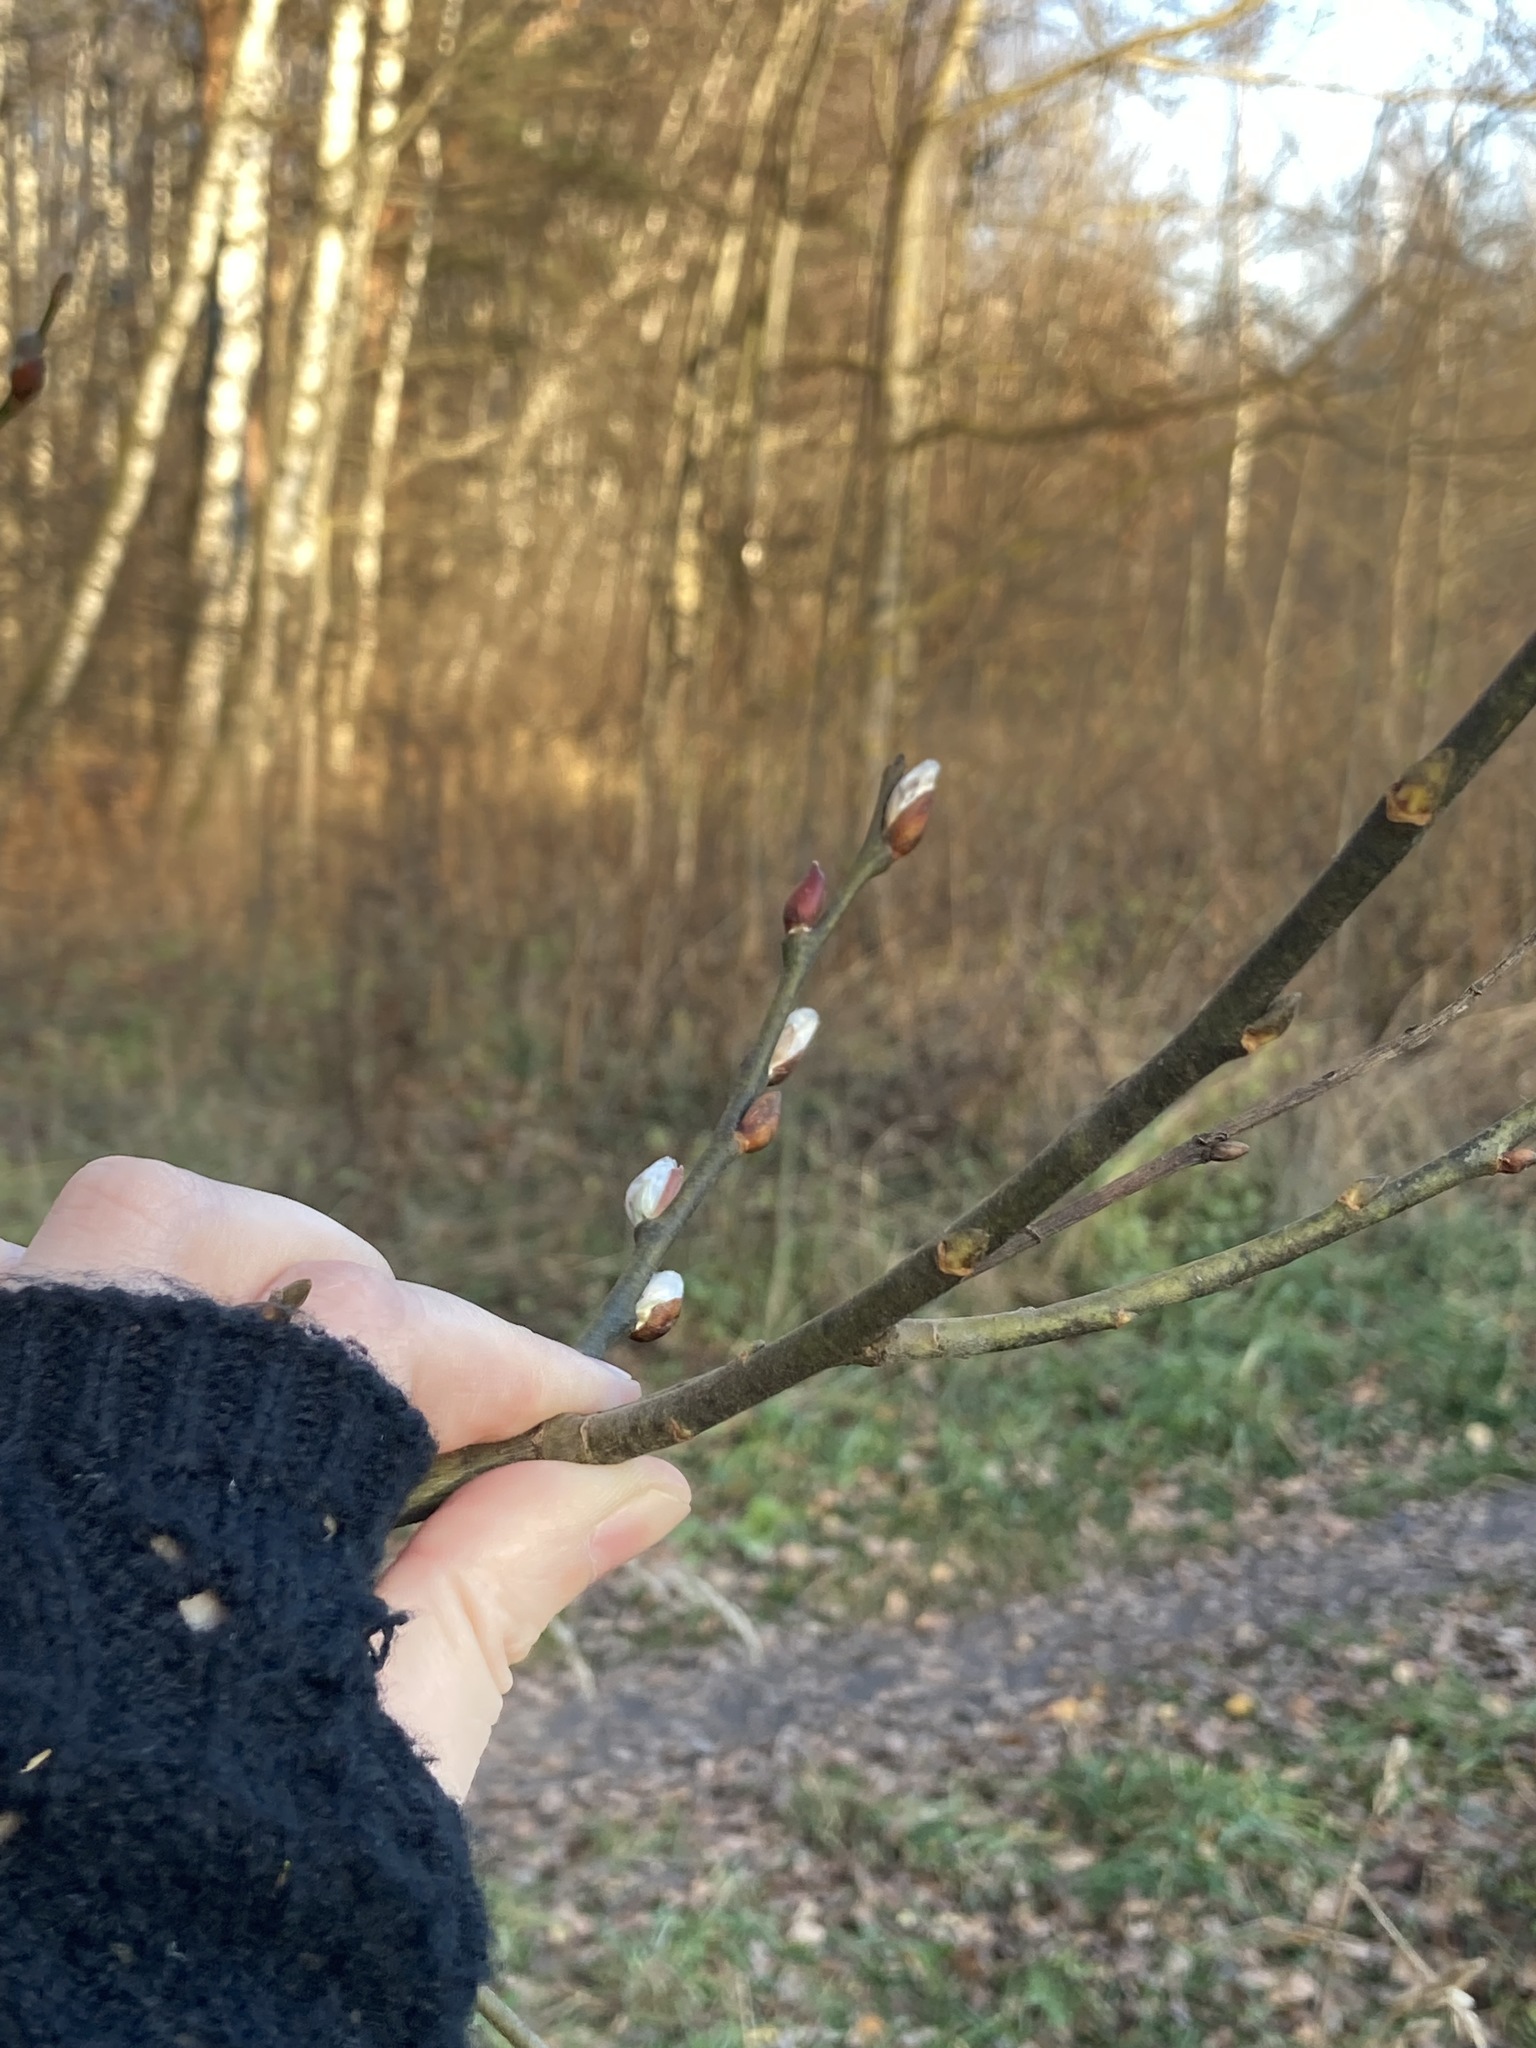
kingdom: Plantae
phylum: Tracheophyta
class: Magnoliopsida
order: Malpighiales
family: Salicaceae
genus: Salix
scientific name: Salix caprea
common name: Goat willow
